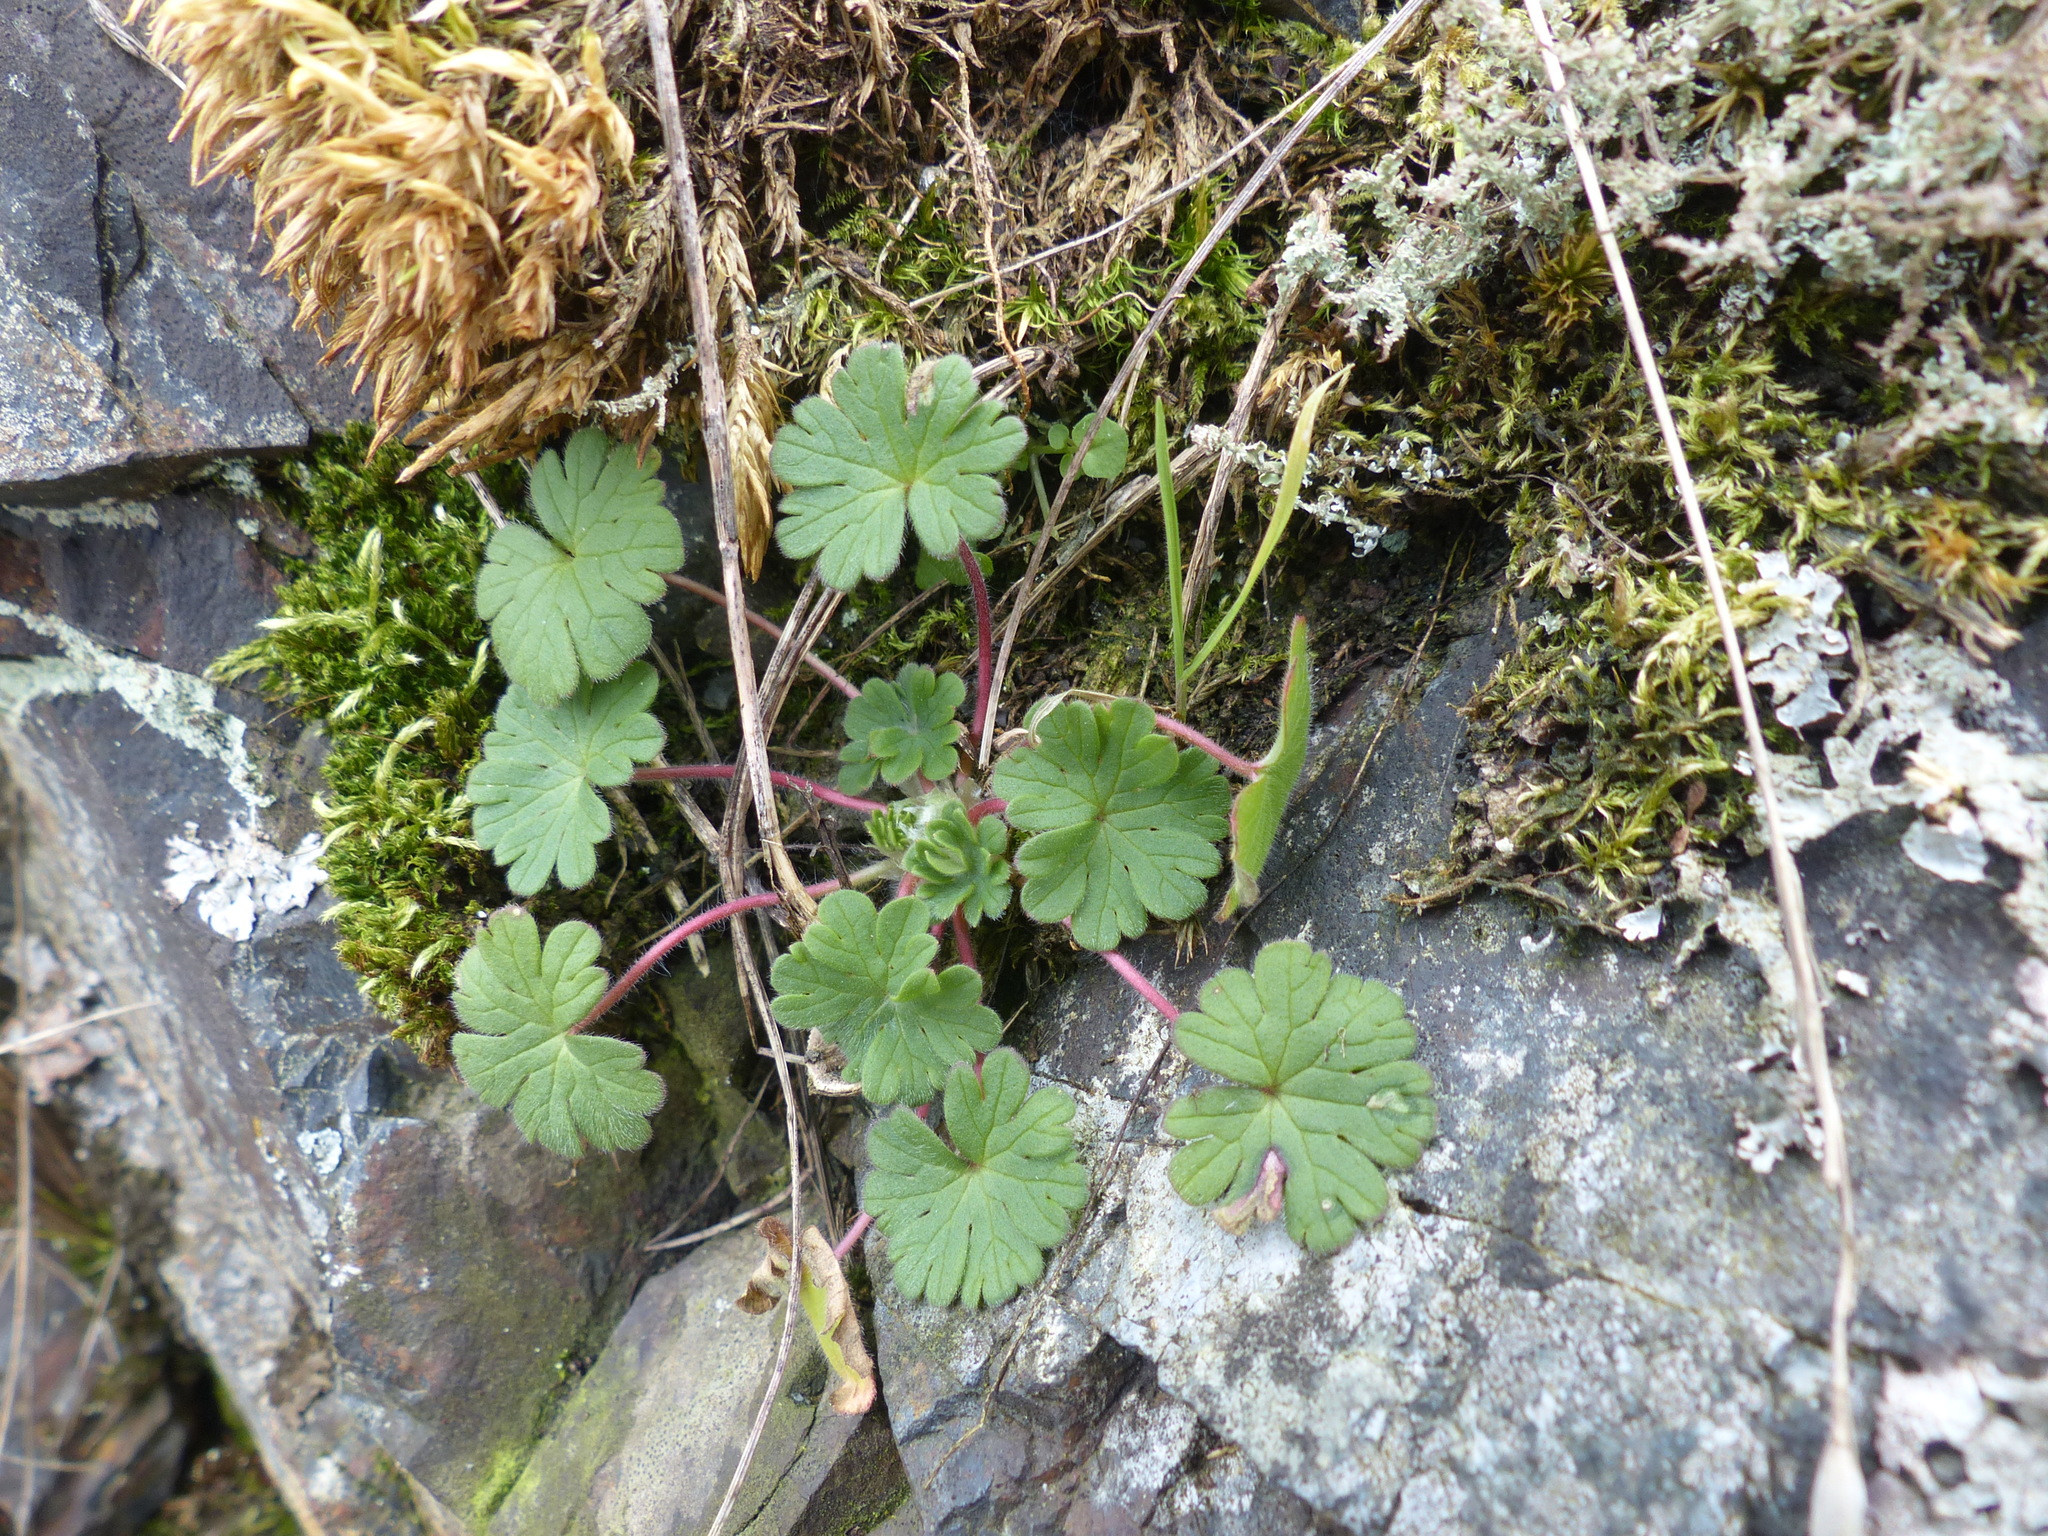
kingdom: Plantae
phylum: Tracheophyta
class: Magnoliopsida
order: Geraniales
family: Geraniaceae
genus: Geranium
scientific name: Geranium molle
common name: Dove's-foot crane's-bill
